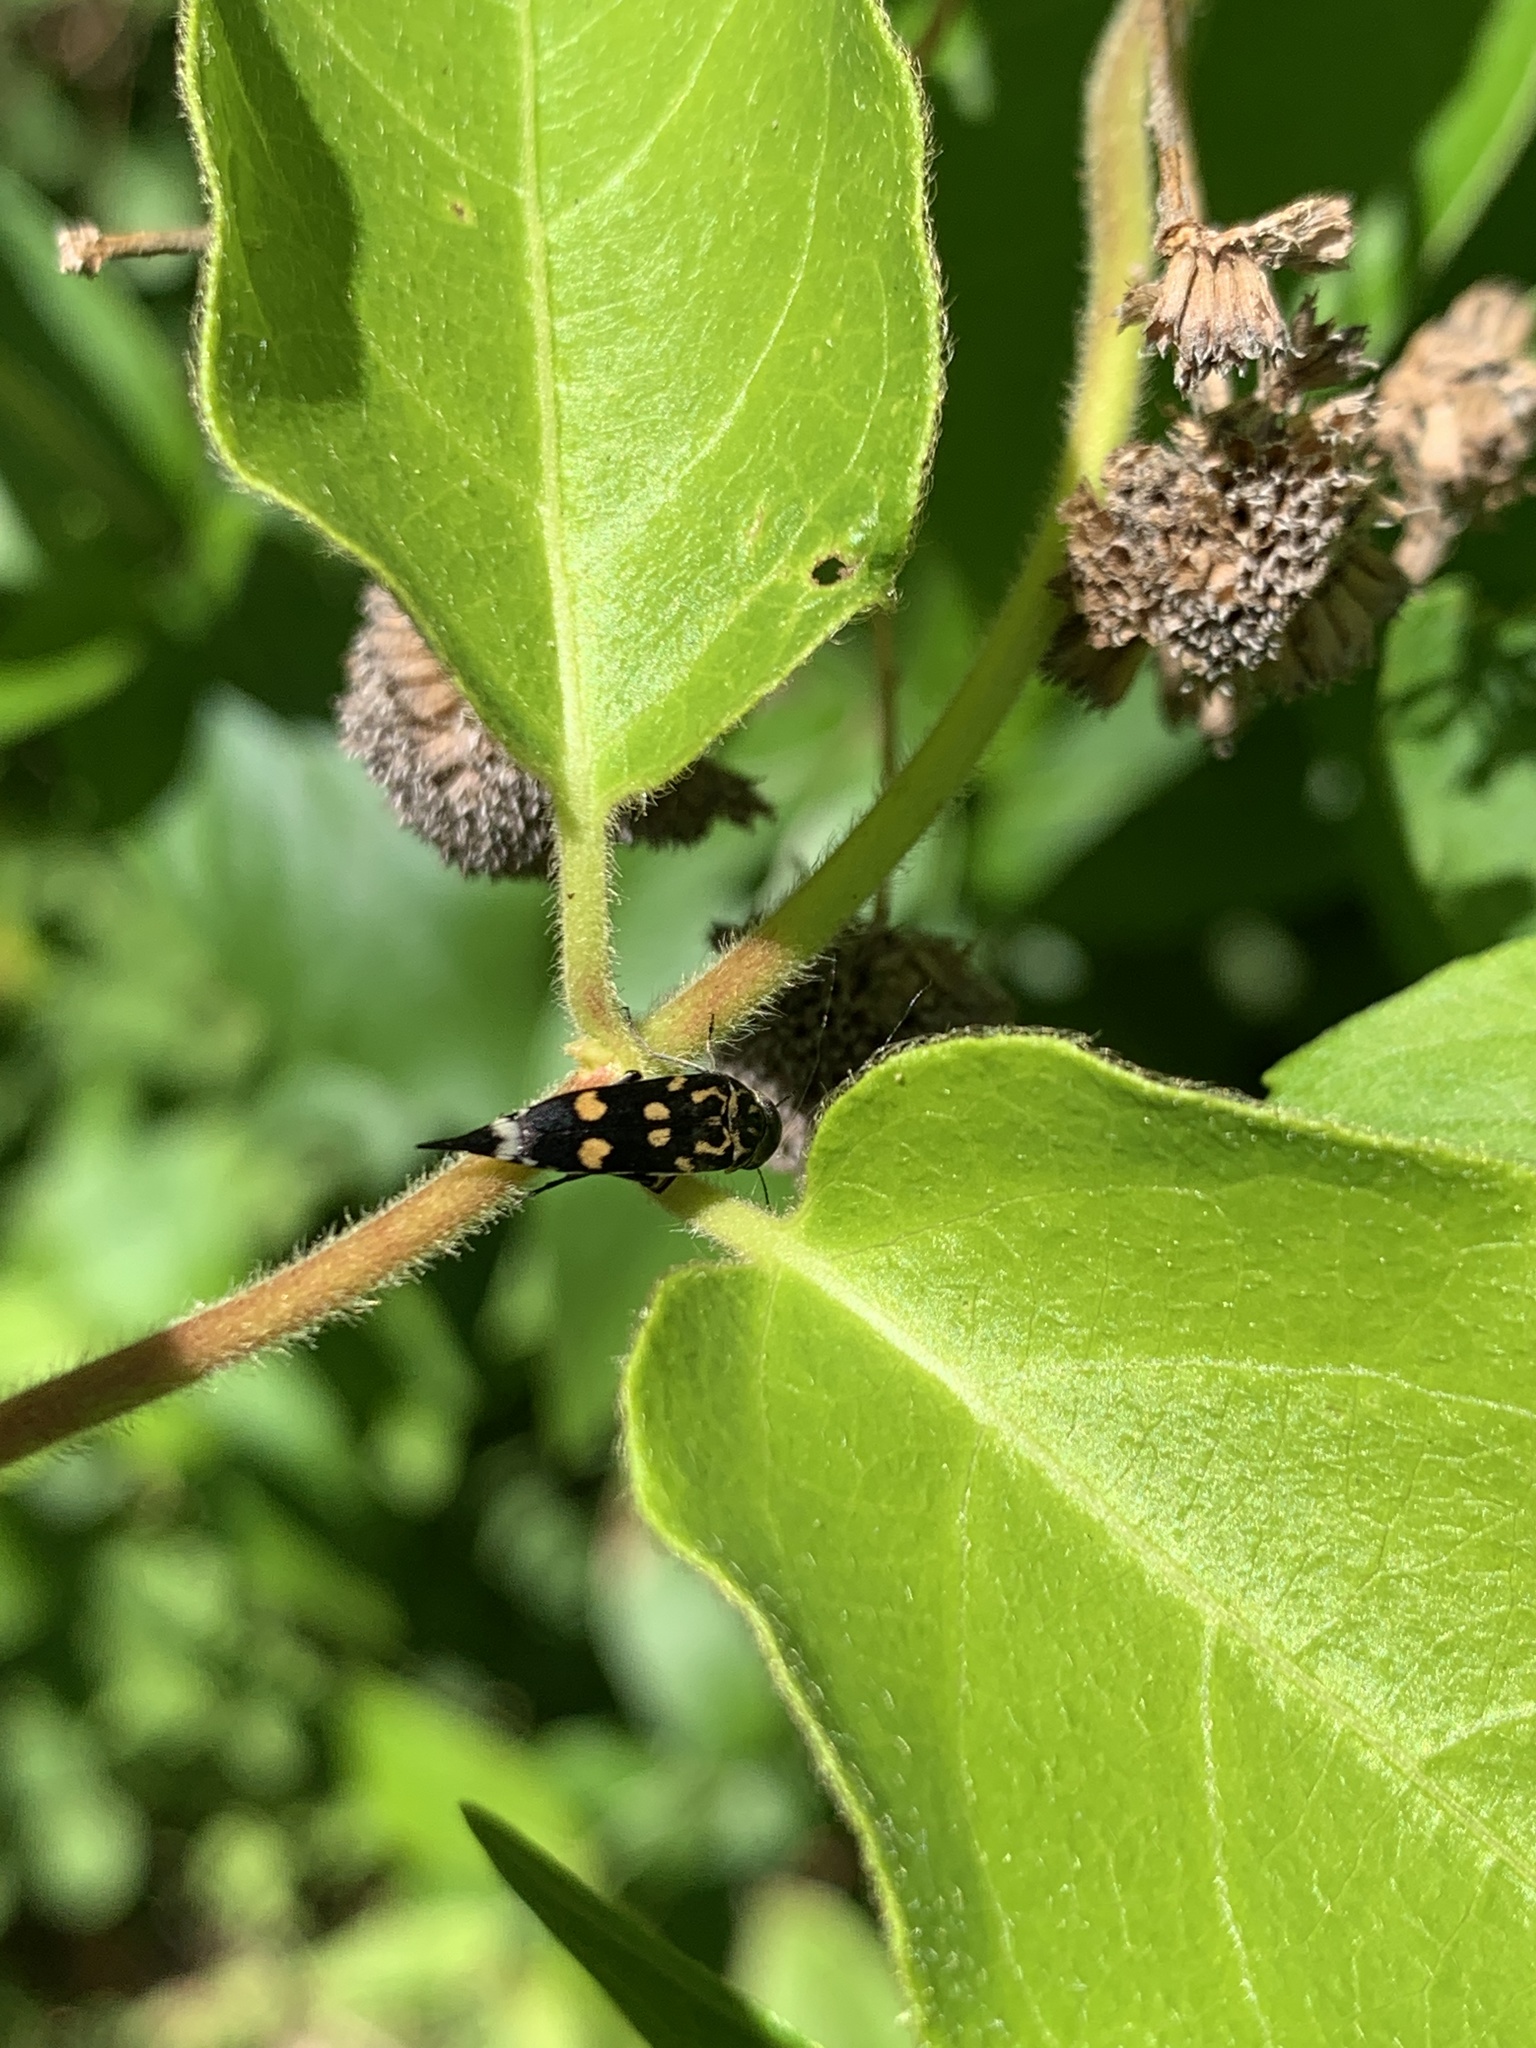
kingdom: Animalia
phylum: Arthropoda
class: Insecta
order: Coleoptera
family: Mordellidae
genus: Hoshihananomia
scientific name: Hoshihananomia octopunctata
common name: Eight-spotted tumbling flower beetle
